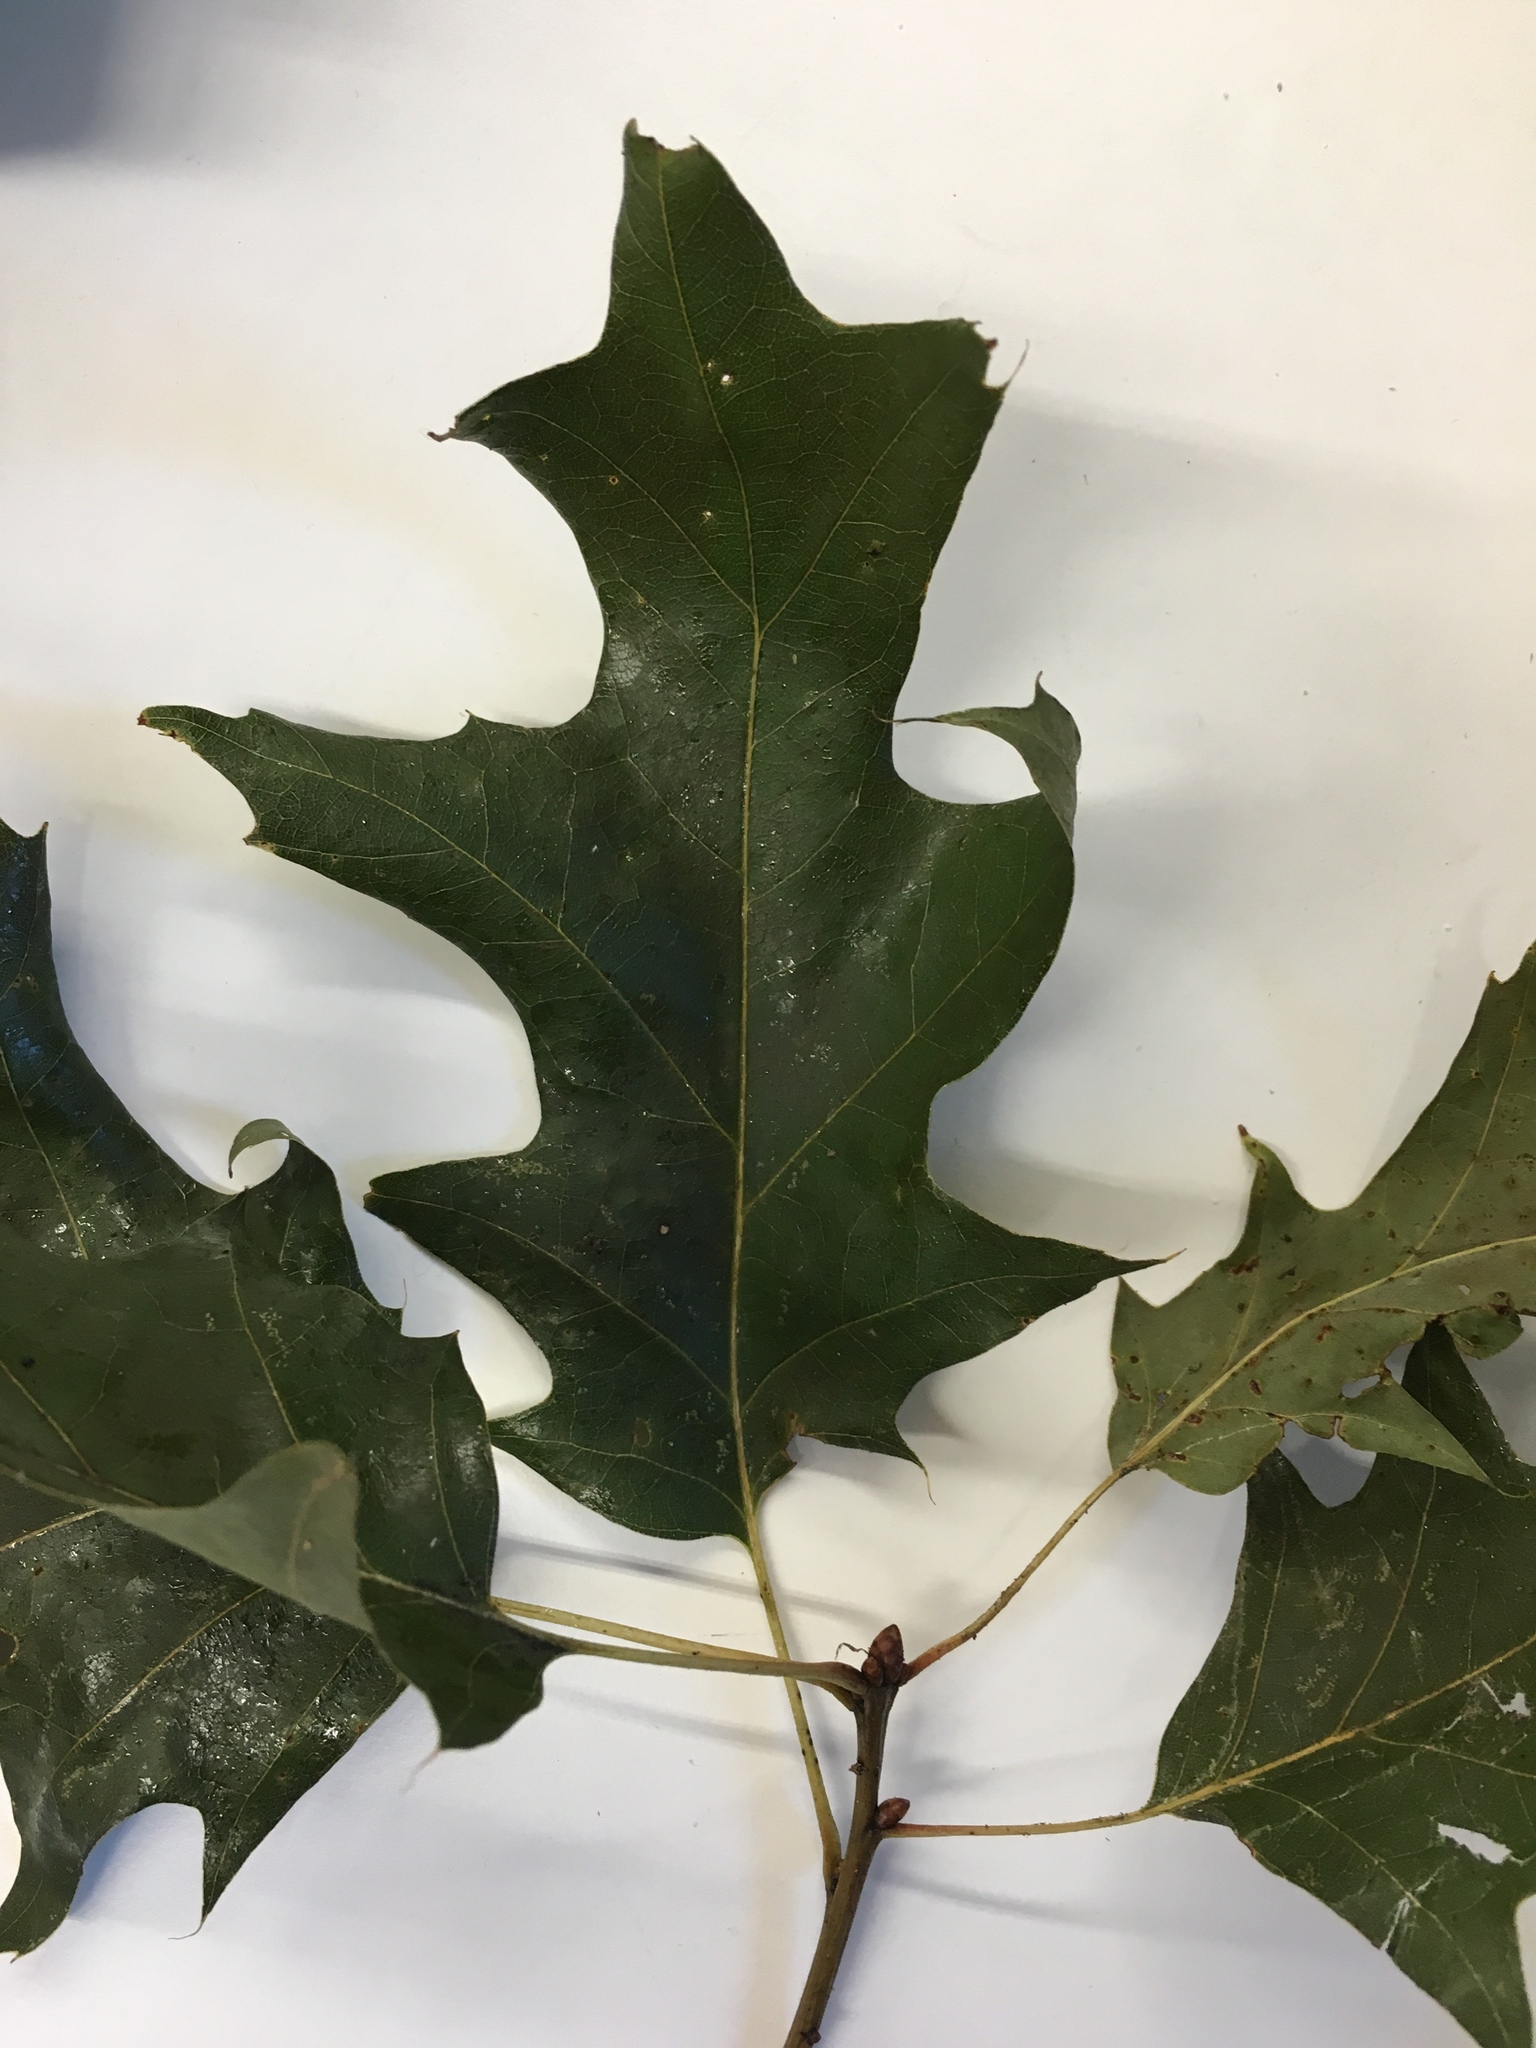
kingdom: Plantae
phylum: Tracheophyta
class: Magnoliopsida
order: Fagales
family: Fagaceae
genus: Quercus
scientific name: Quercus rubra
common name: Red oak
